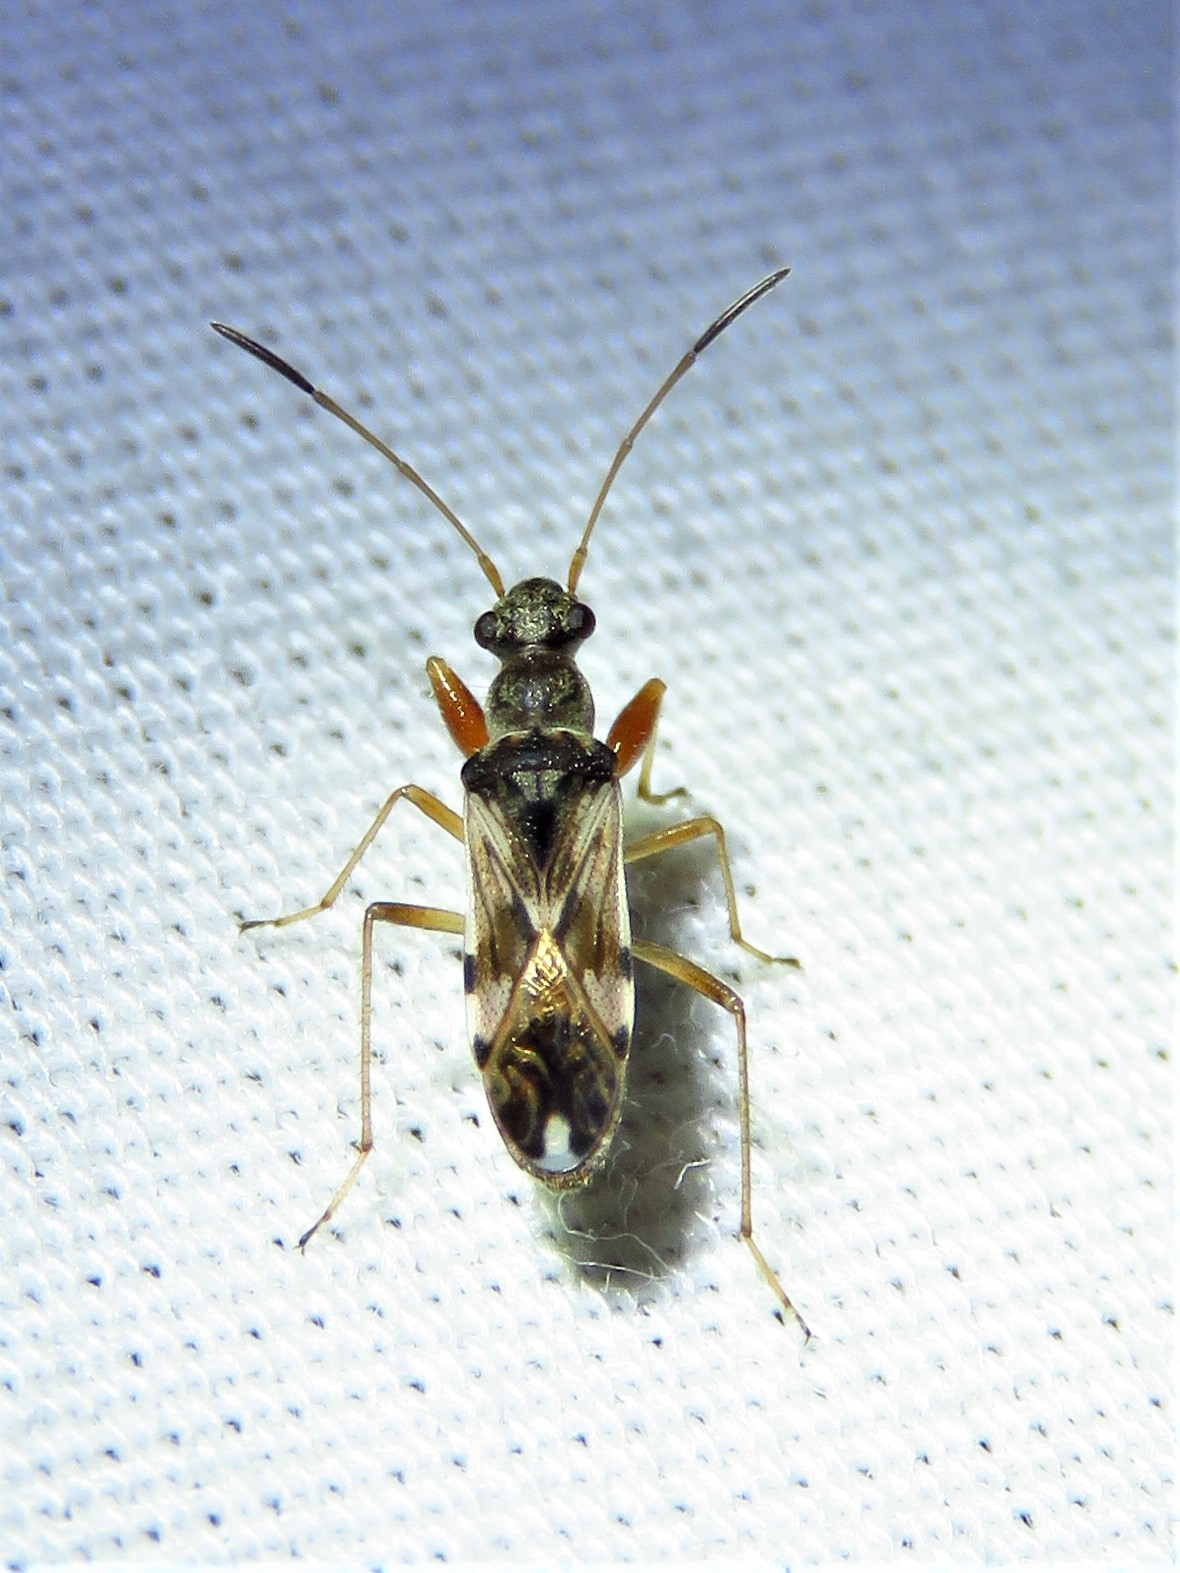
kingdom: Animalia
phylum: Arthropoda
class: Insecta
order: Hemiptera
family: Rhyparochromidae
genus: Neopamera
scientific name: Neopamera bilobata
